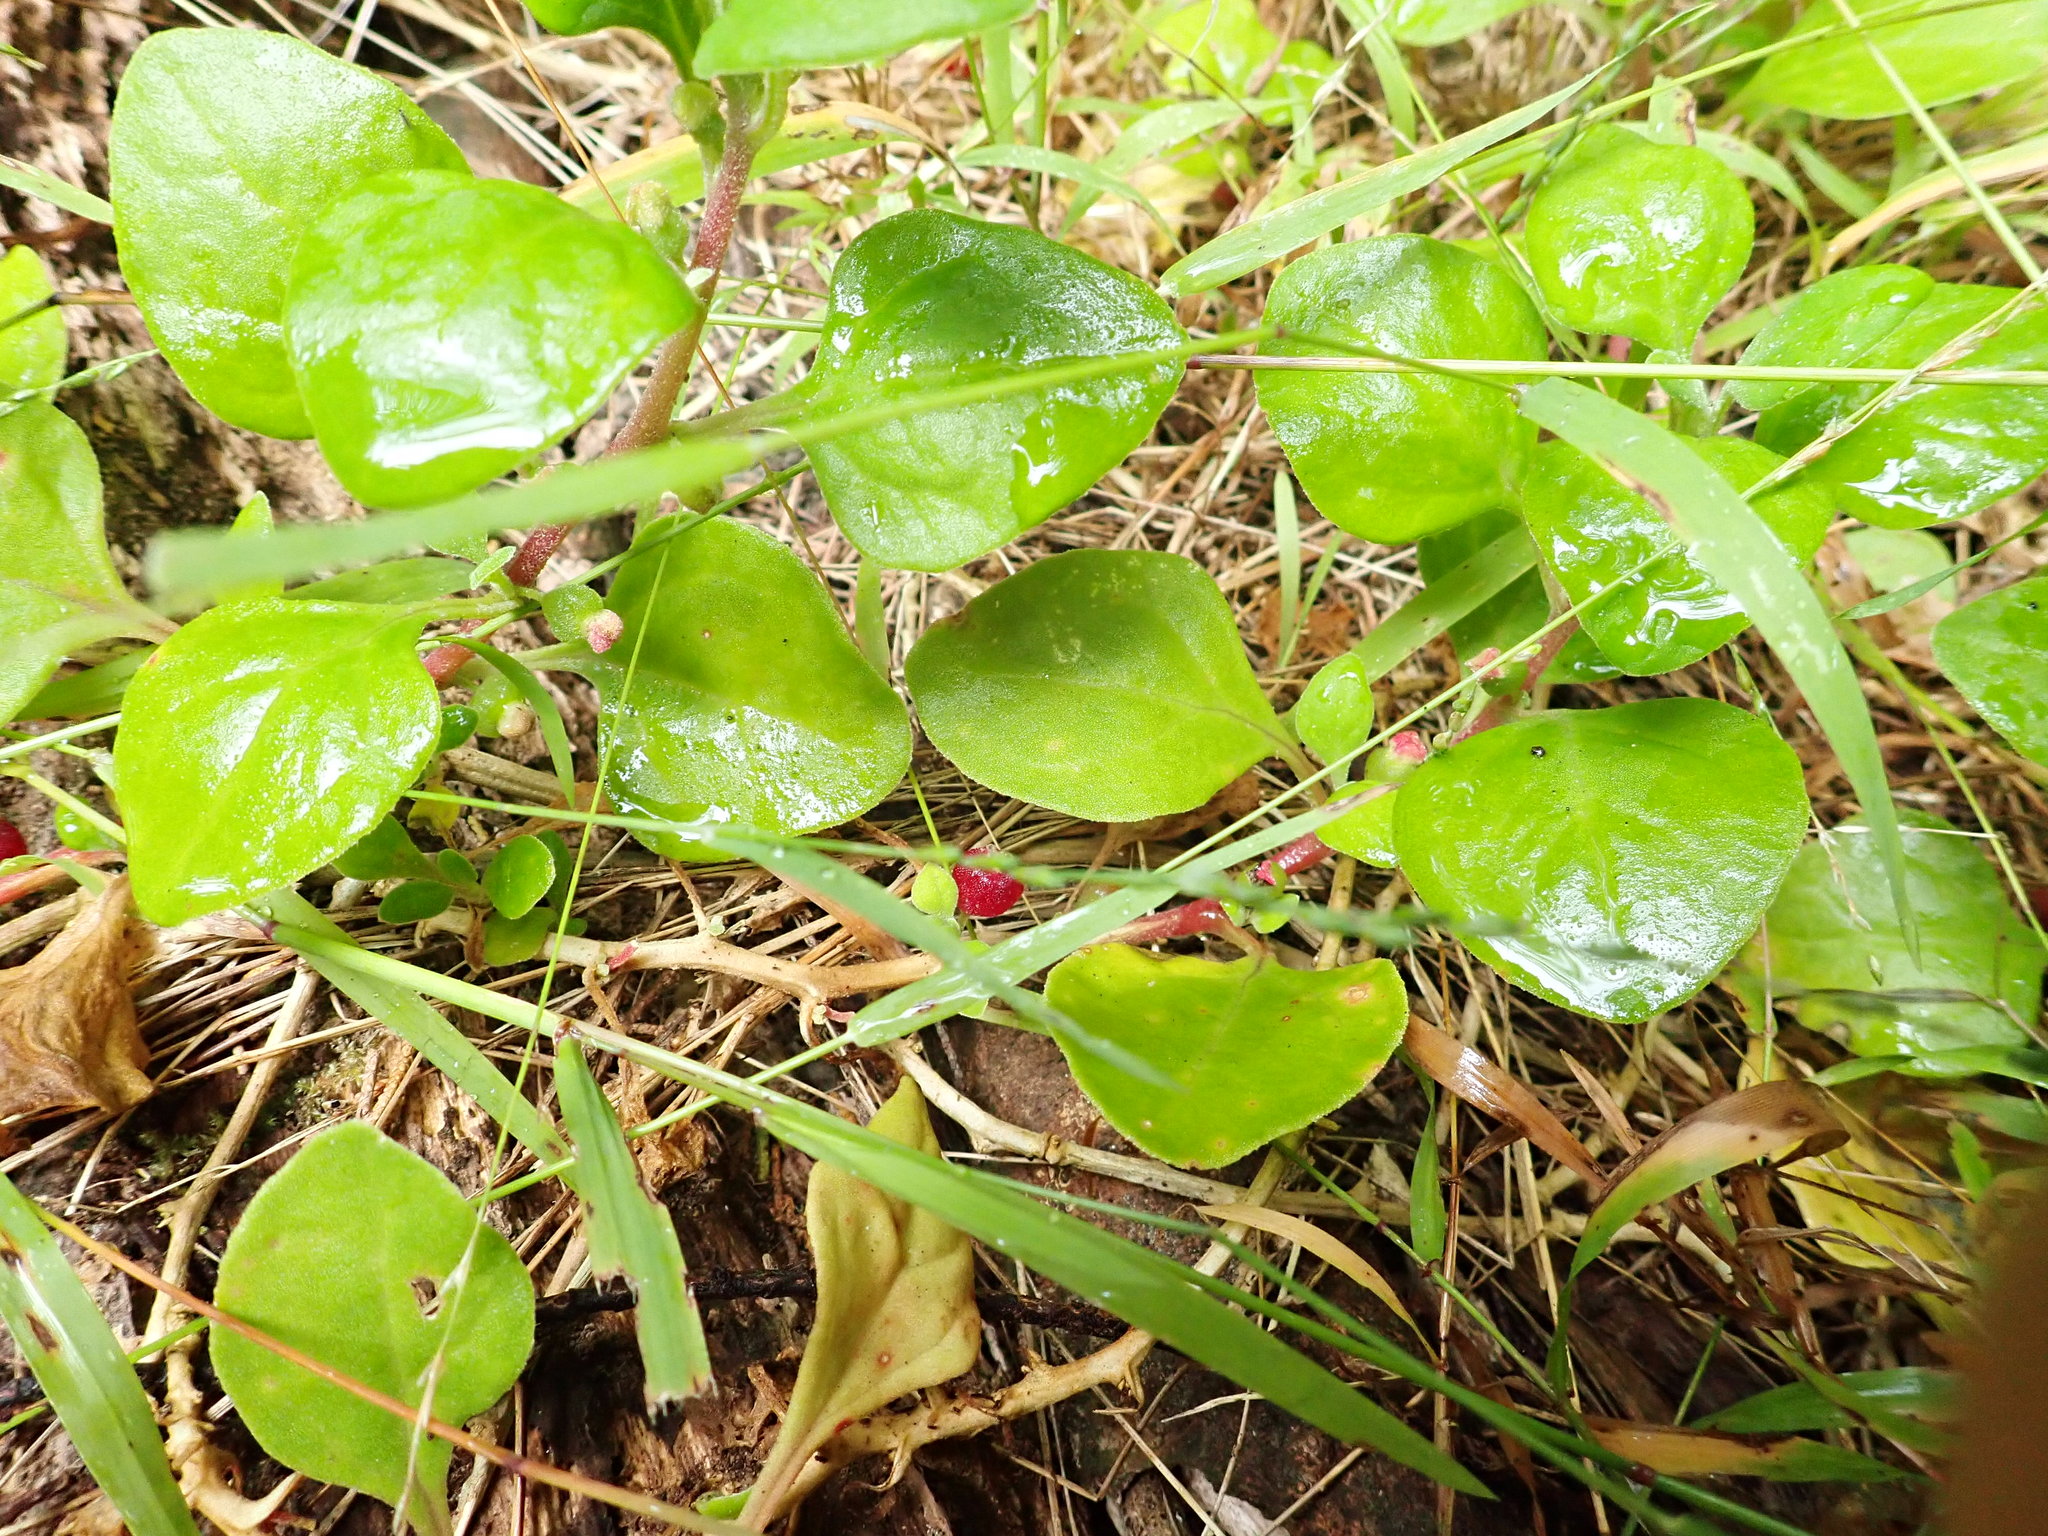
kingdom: Plantae
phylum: Tracheophyta
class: Magnoliopsida
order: Caryophyllales
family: Aizoaceae
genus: Tetragonia
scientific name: Tetragonia implexicoma
